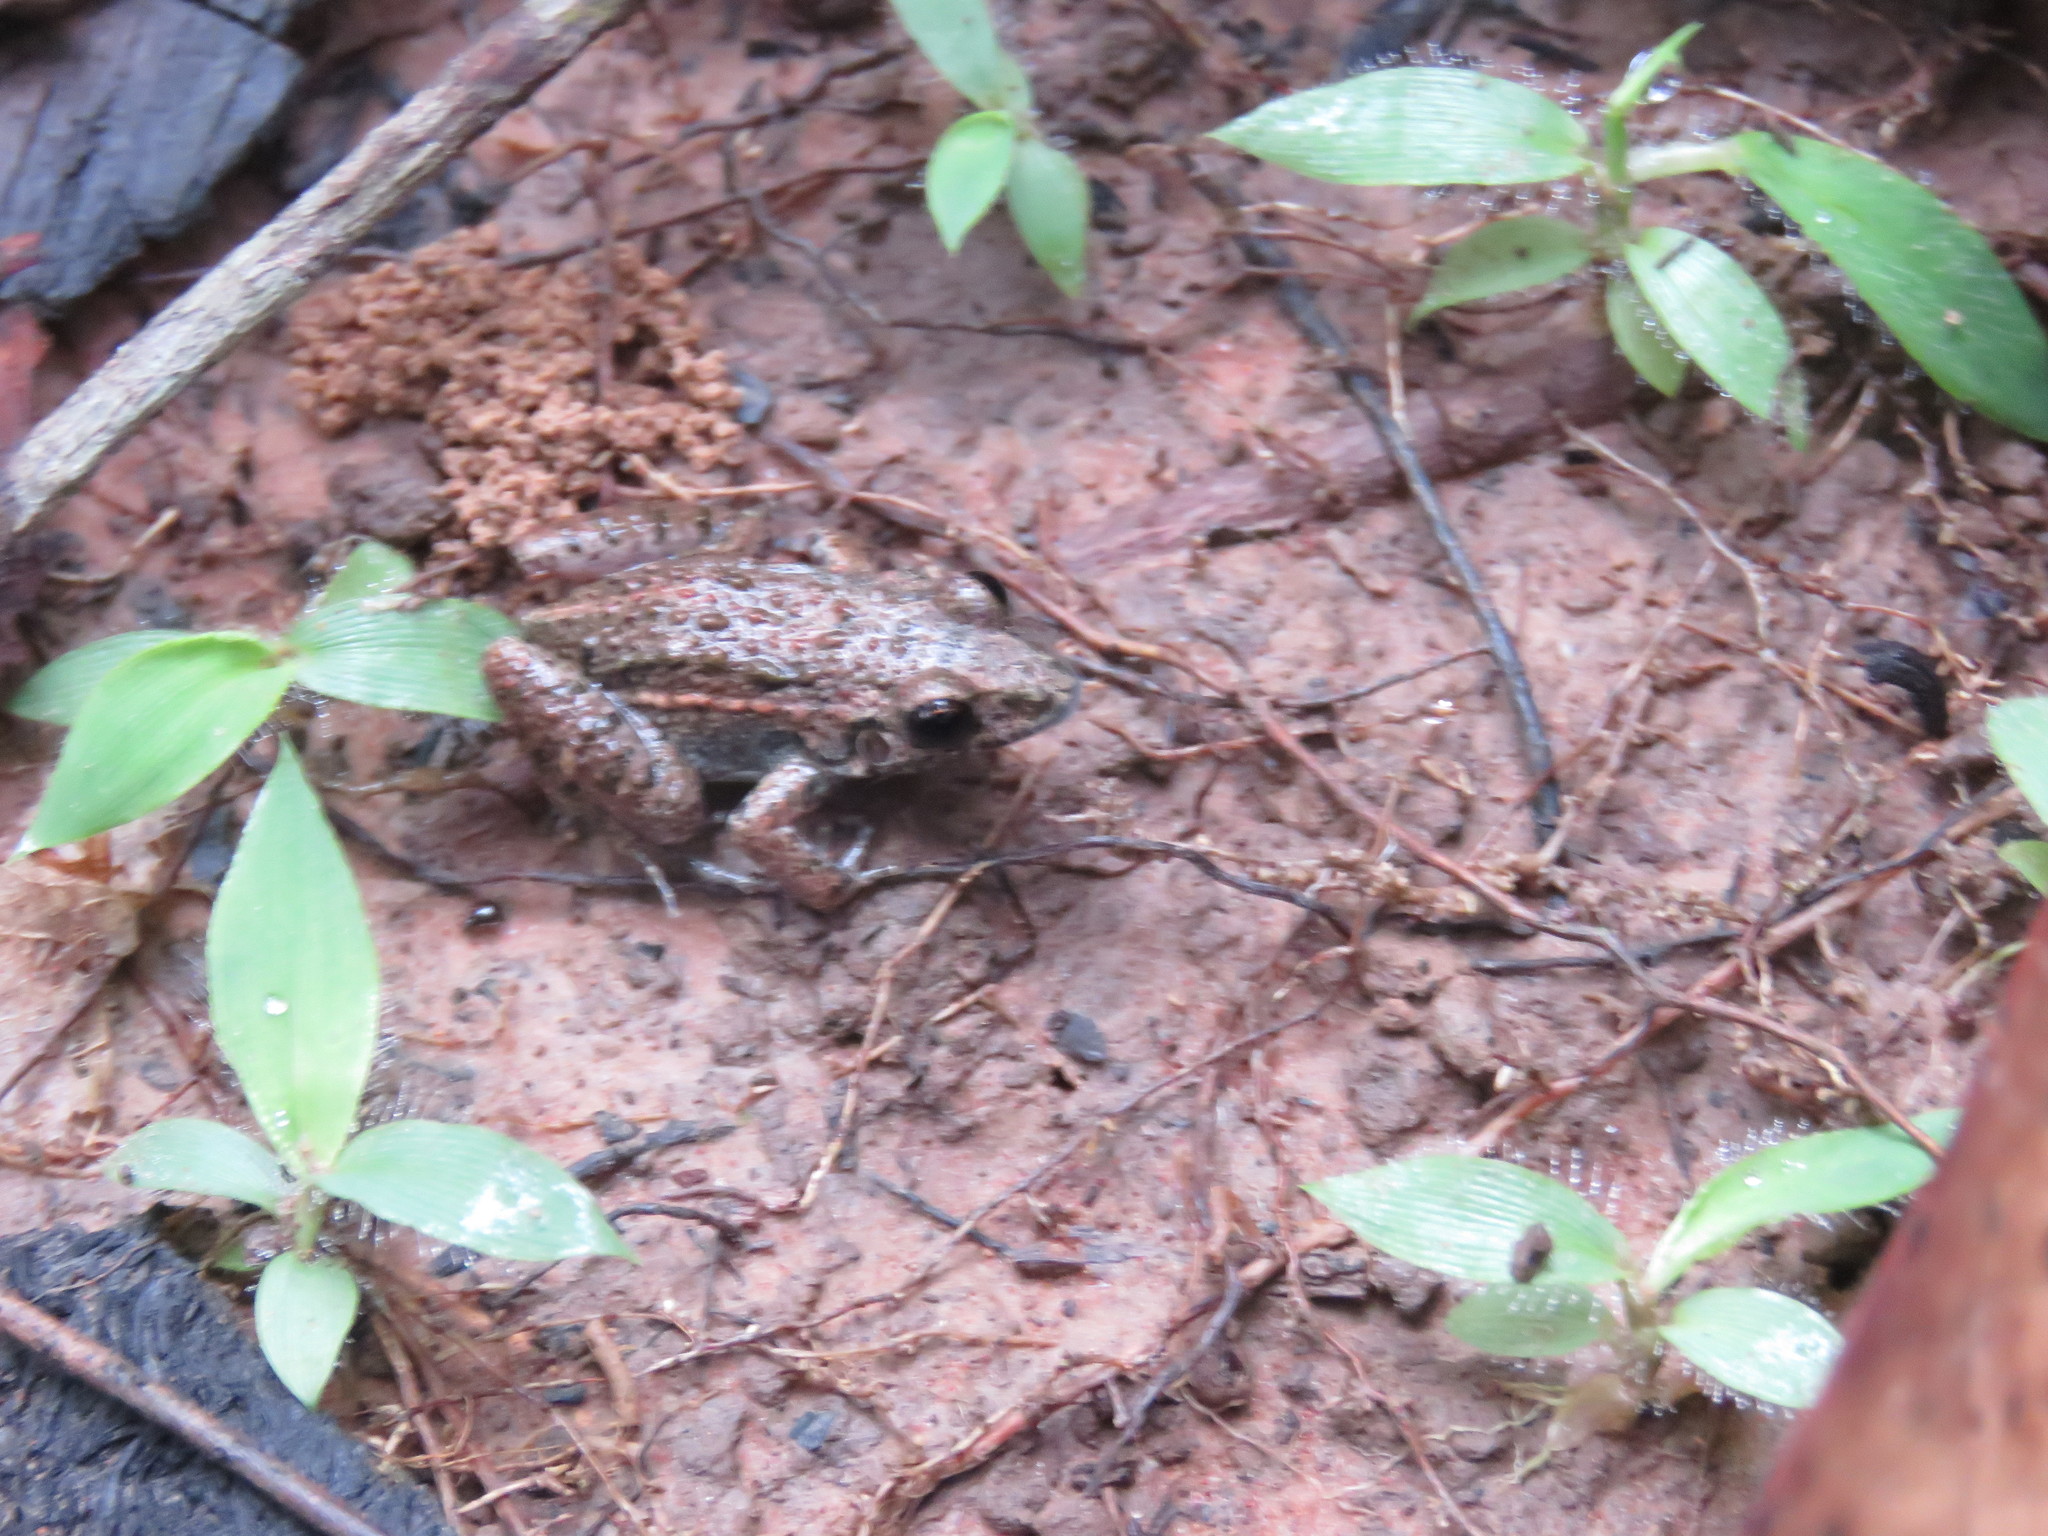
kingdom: Animalia
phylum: Chordata
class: Amphibia
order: Anura
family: Leptodactylidae
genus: Adenomera
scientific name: Adenomera chicomendesi
